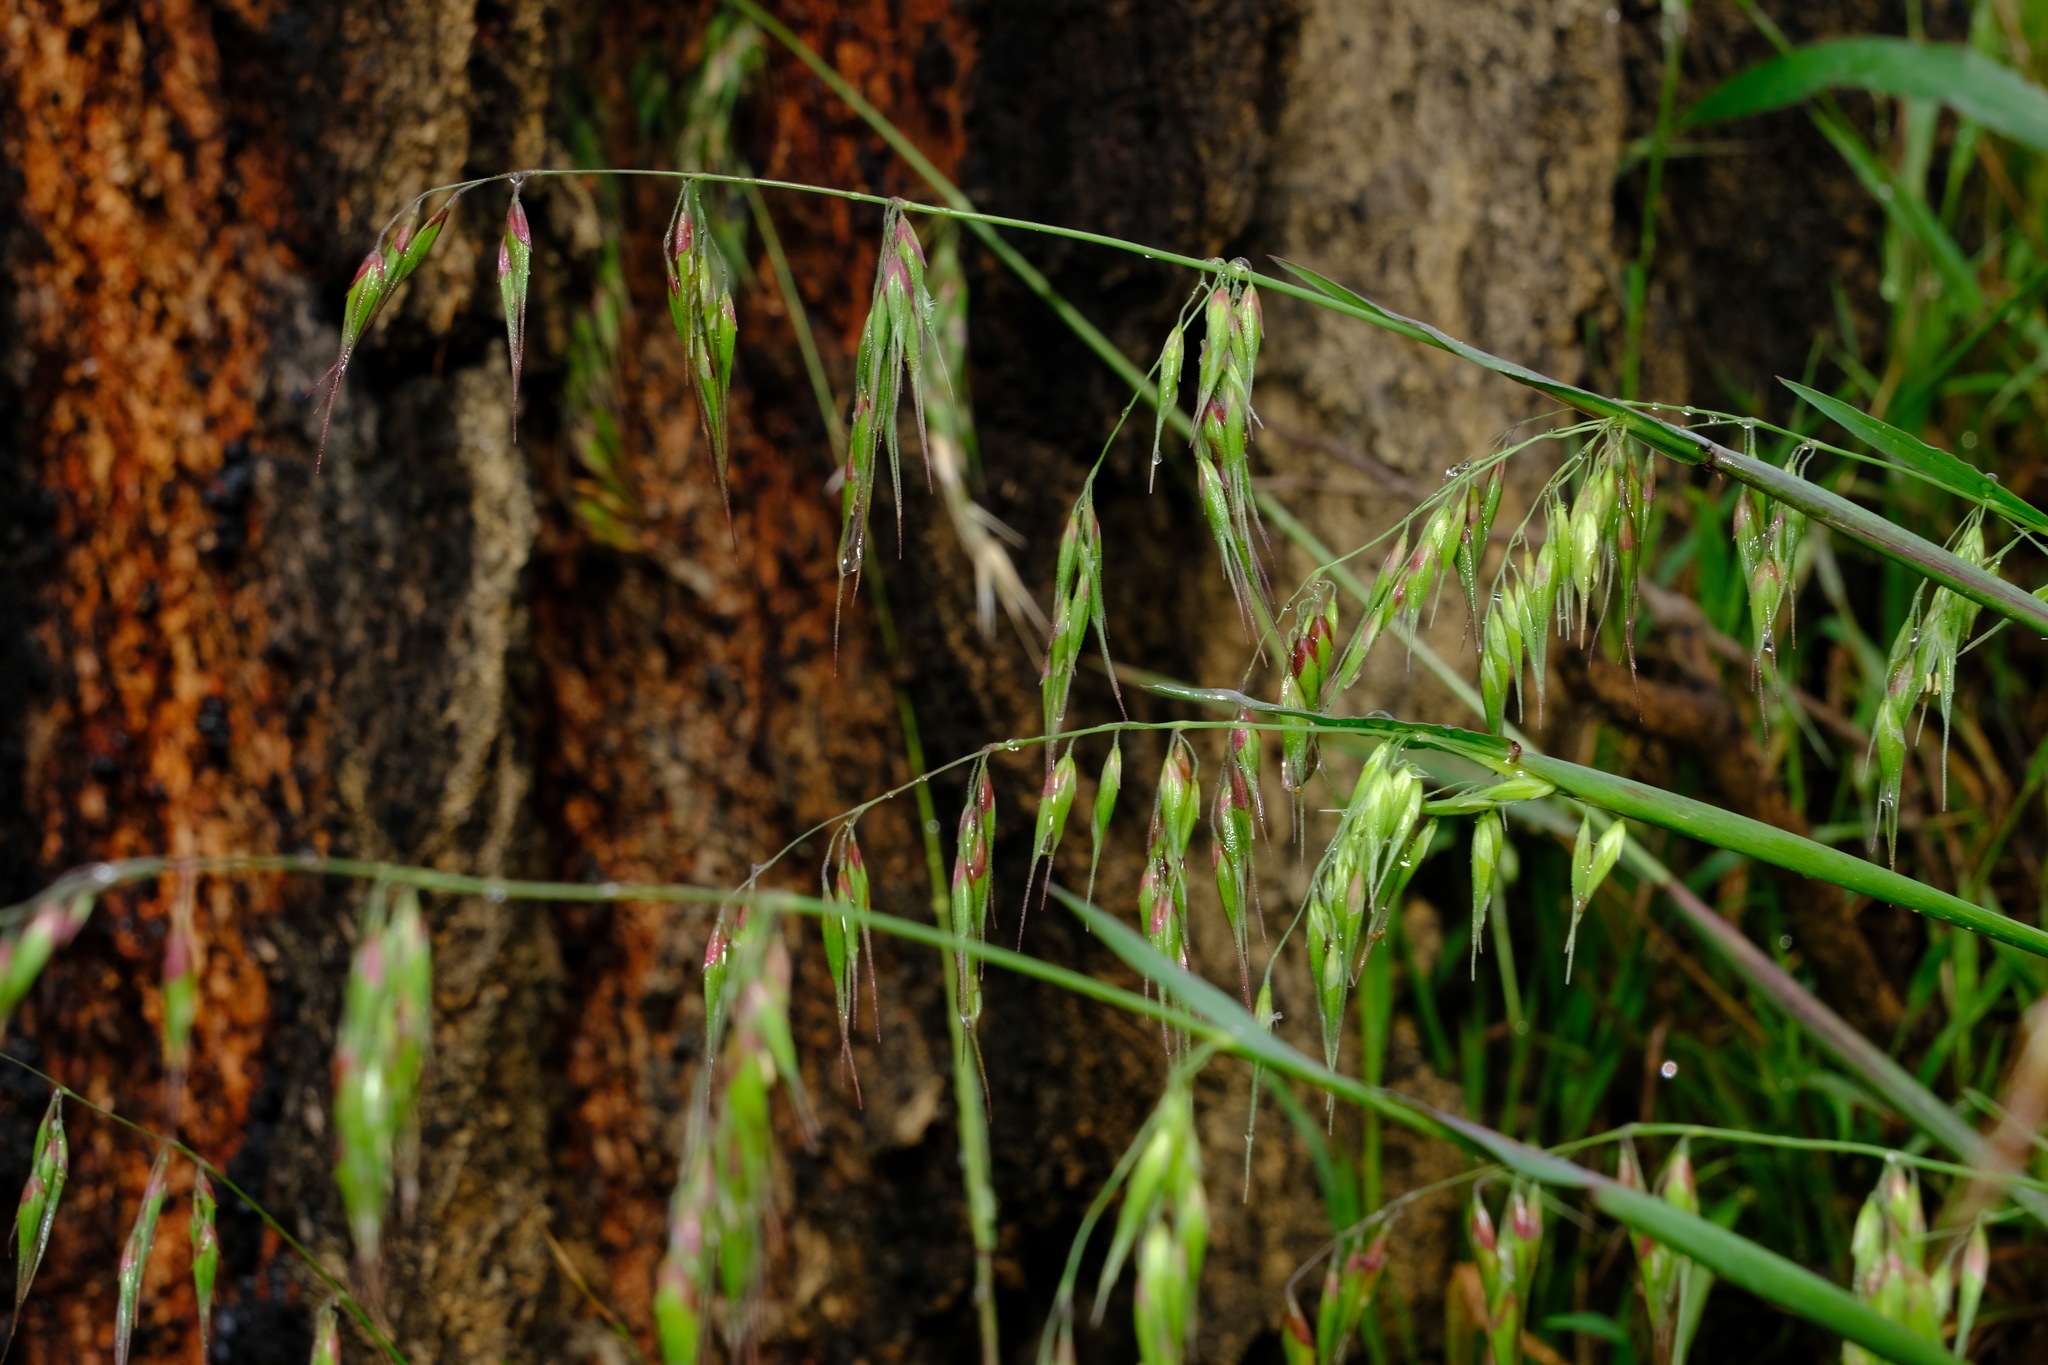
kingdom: Plantae
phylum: Tracheophyta
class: Liliopsida
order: Poales
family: Poaceae
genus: Ehrharta
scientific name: Ehrharta longiflora
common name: Longflowered veldtgrass
